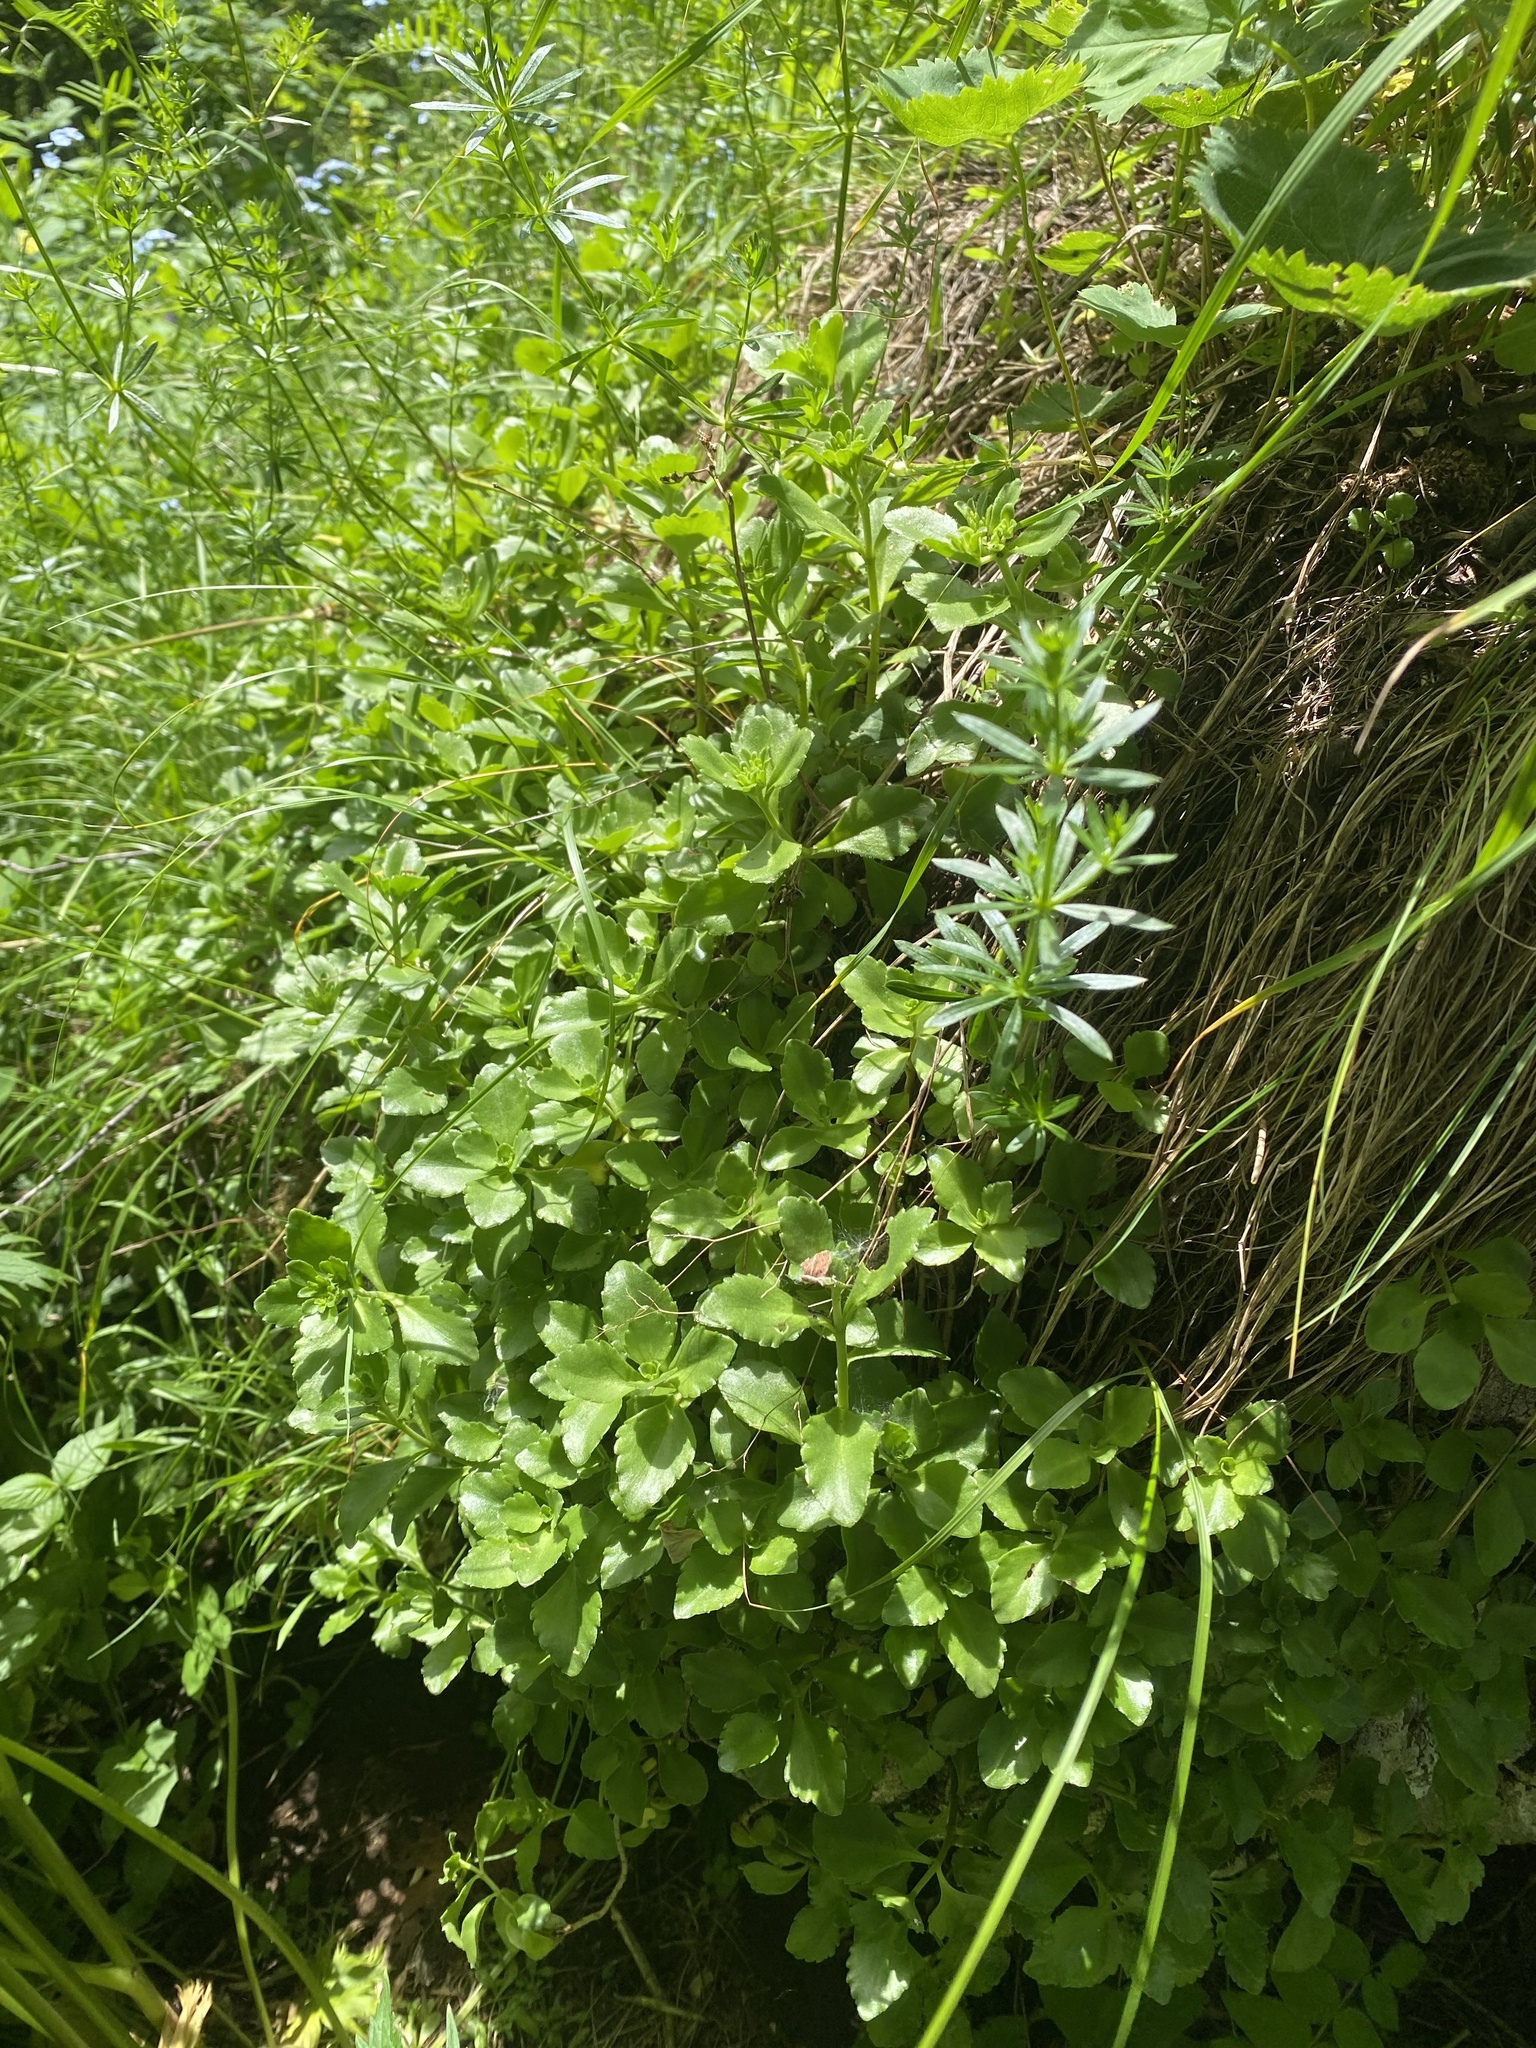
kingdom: Plantae
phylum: Tracheophyta
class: Magnoliopsida
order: Saxifragales
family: Crassulaceae
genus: Phedimus
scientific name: Phedimus spurius
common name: Caucasian stonecrop
